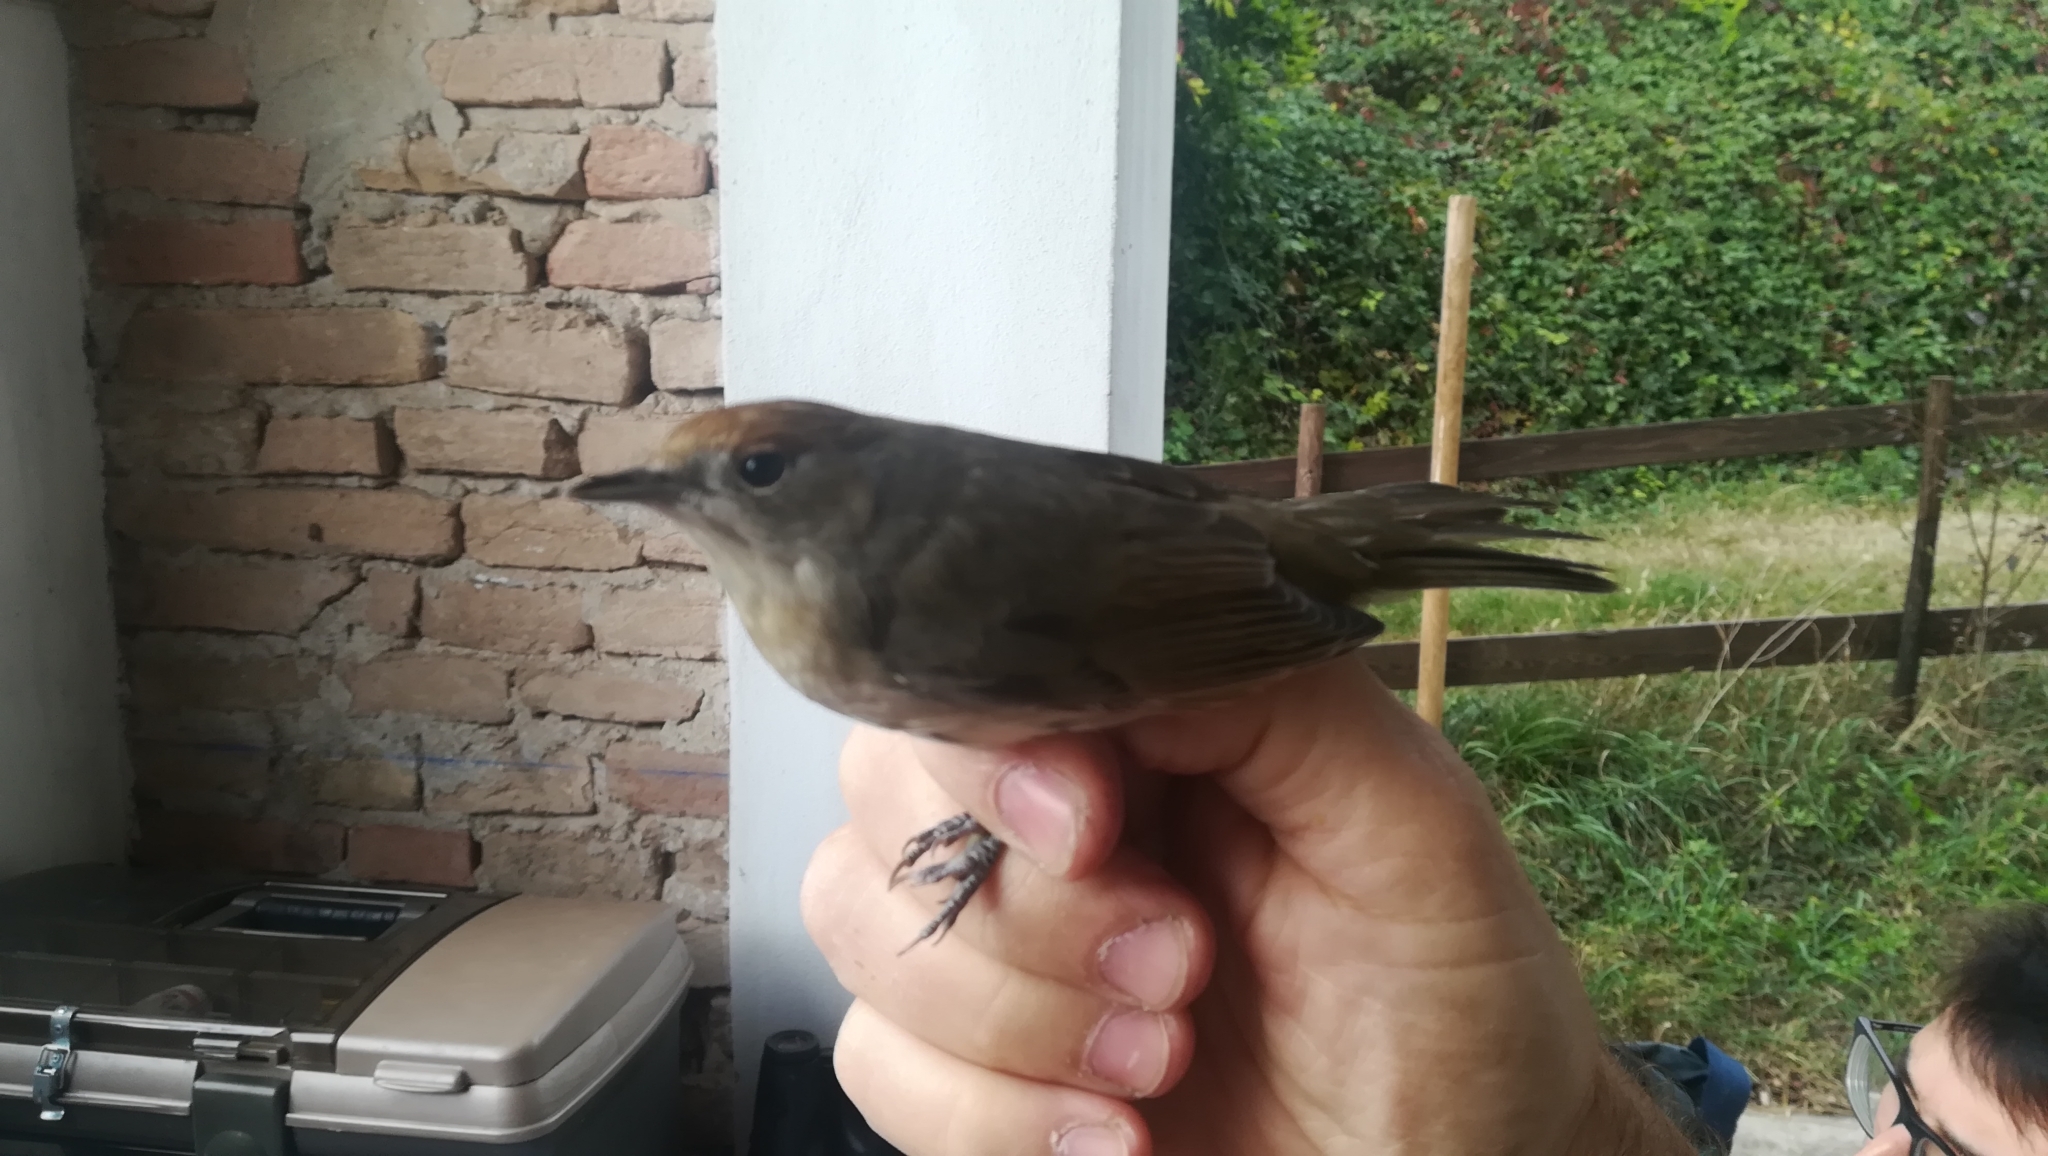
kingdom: Animalia
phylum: Chordata
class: Aves
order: Passeriformes
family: Sylviidae
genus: Sylvia
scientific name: Sylvia atricapilla
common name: Eurasian blackcap
